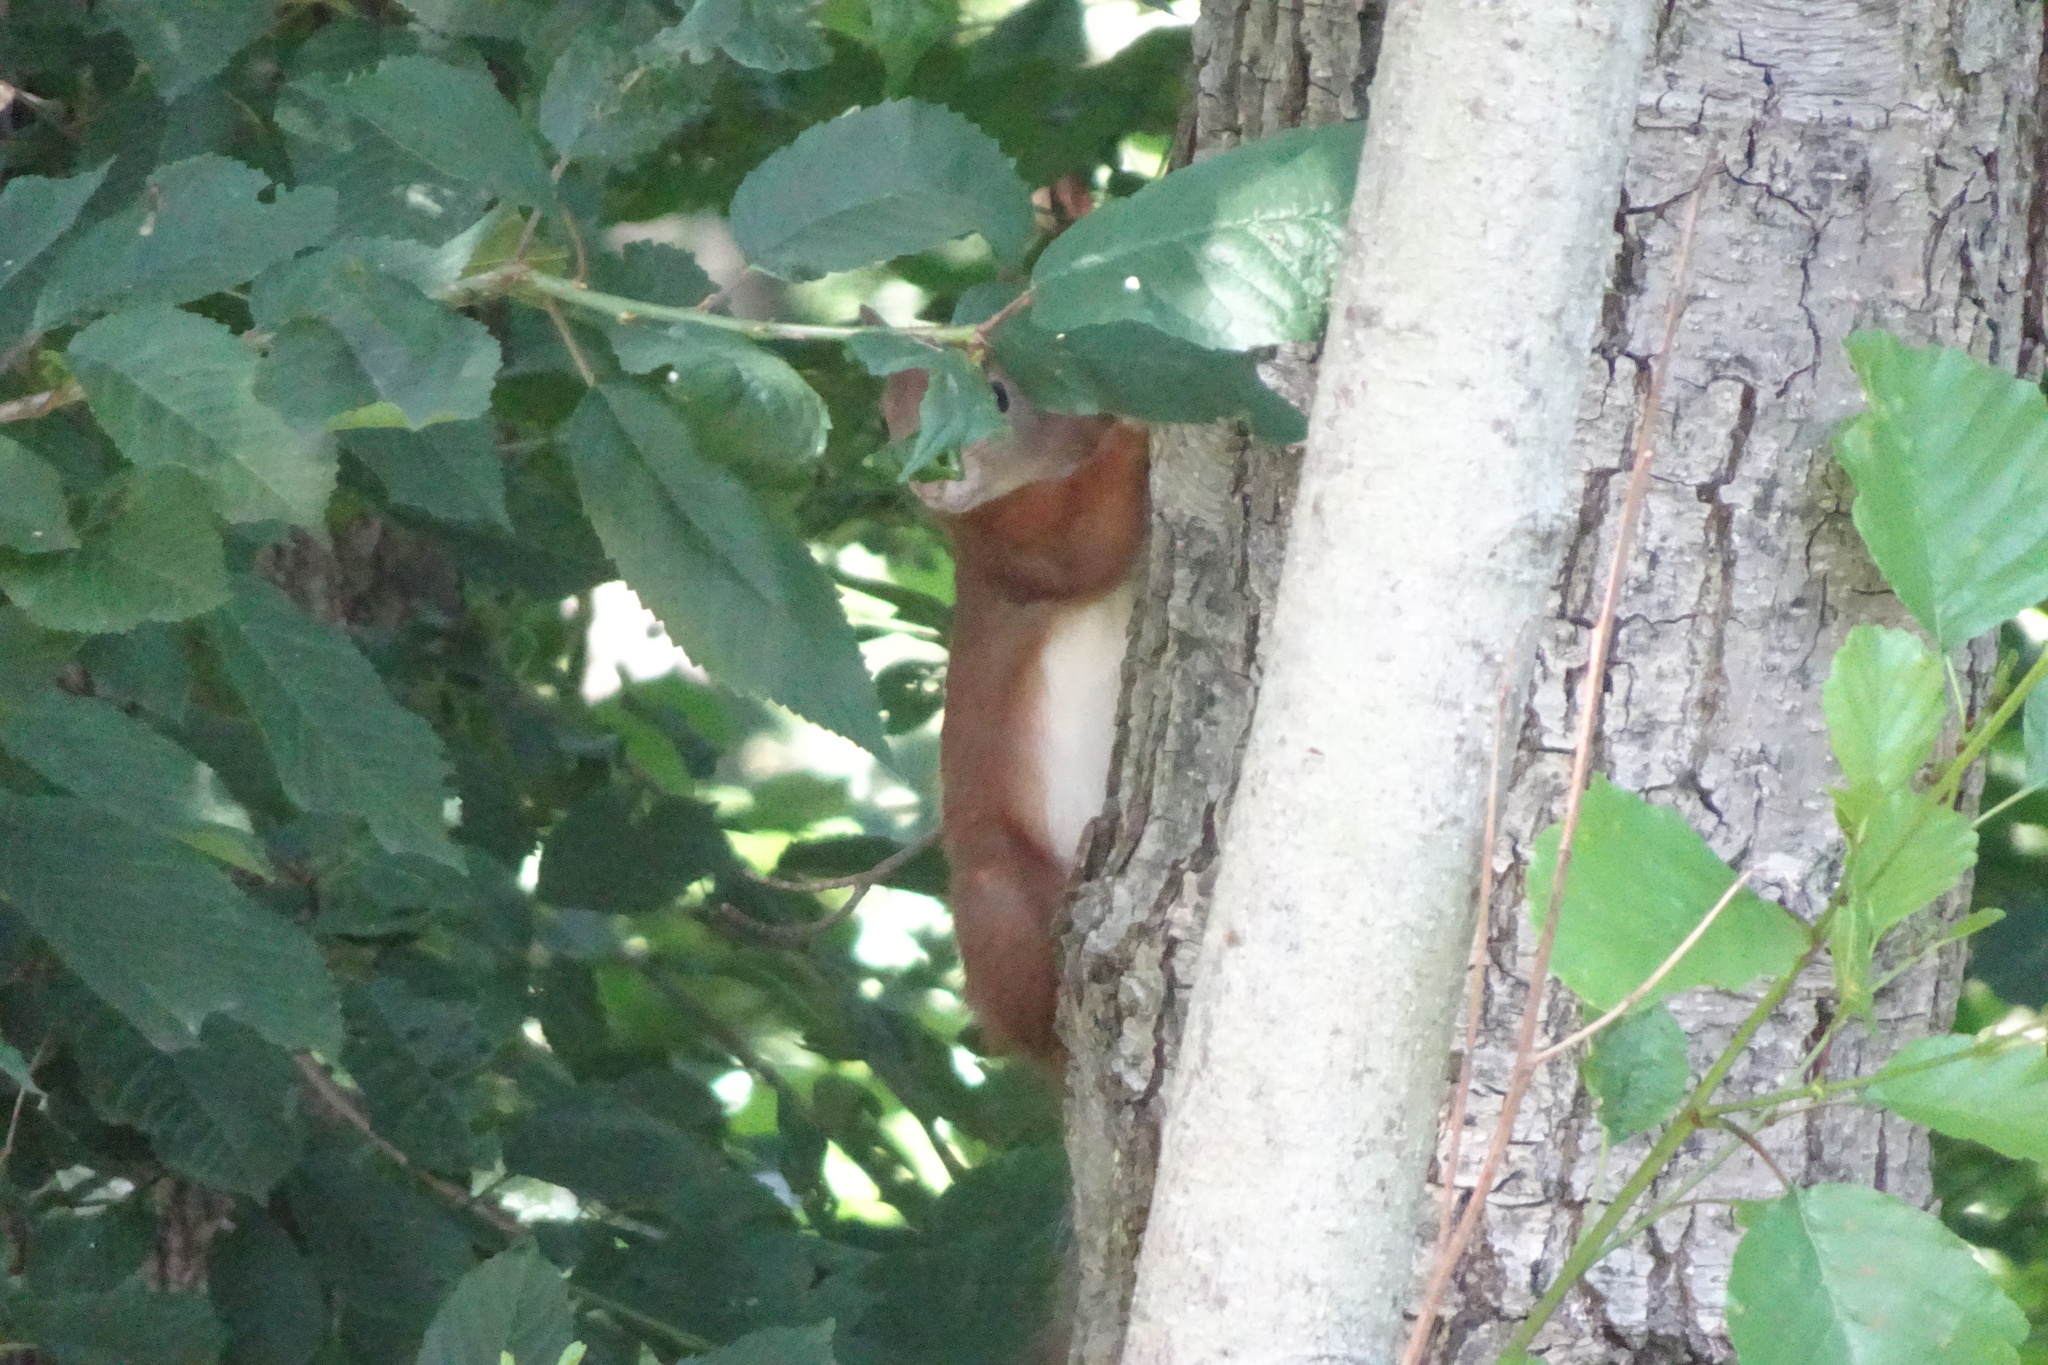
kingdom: Animalia
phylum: Chordata
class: Mammalia
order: Rodentia
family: Sciuridae
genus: Sciurus
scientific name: Sciurus vulgaris
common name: Eurasian red squirrel
